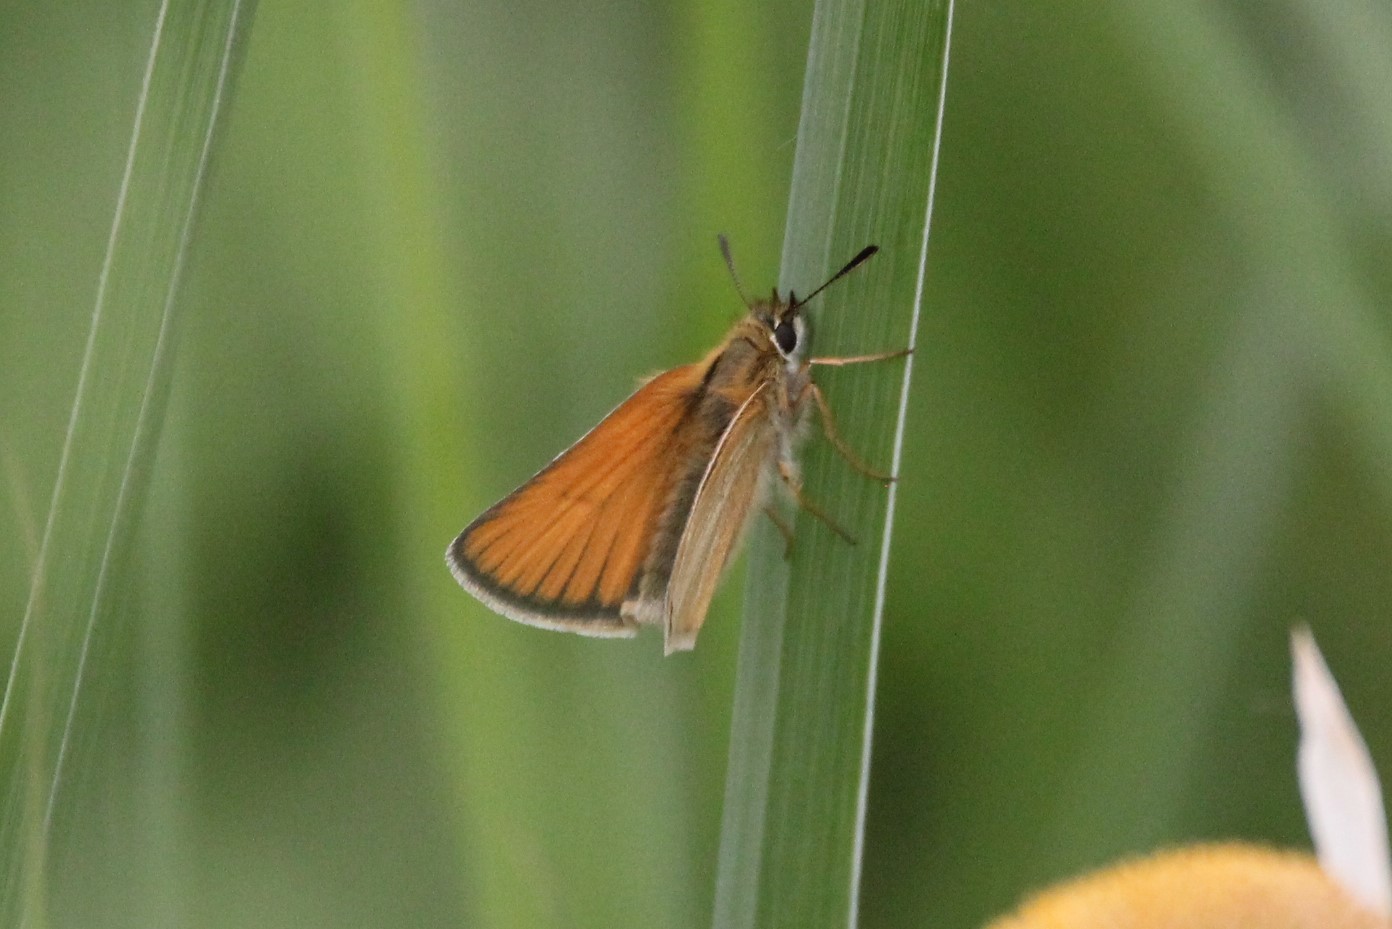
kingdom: Animalia
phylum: Arthropoda
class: Insecta
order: Lepidoptera
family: Hesperiidae
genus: Thymelicus
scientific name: Thymelicus lineola
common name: Essex skipper
